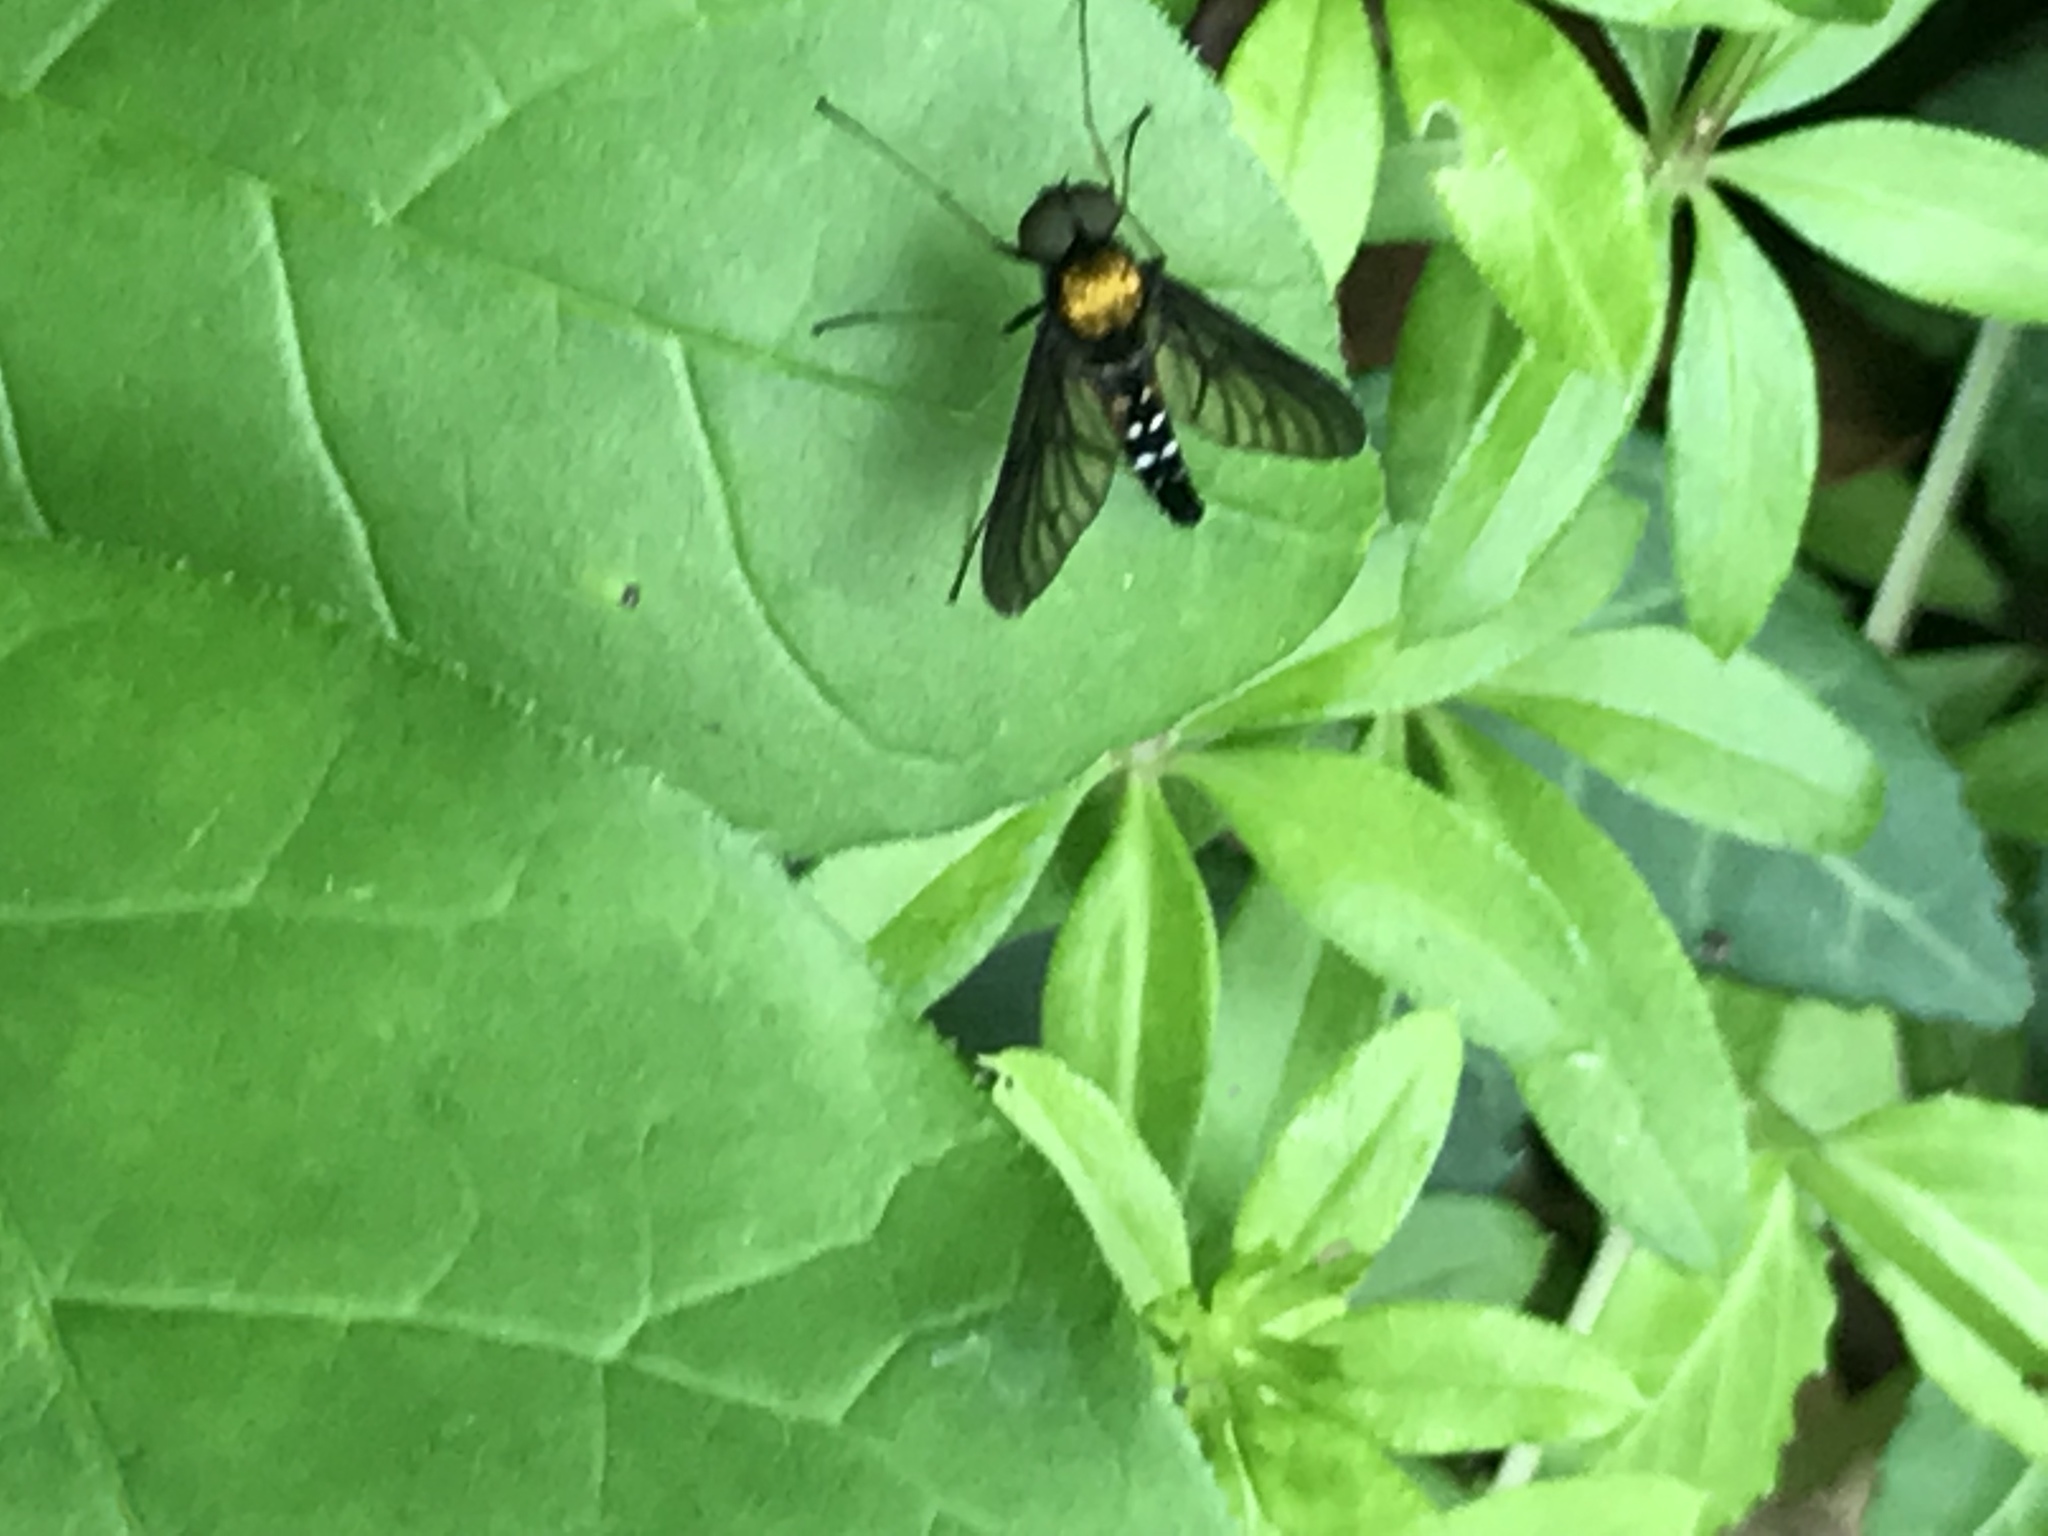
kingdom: Animalia
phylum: Arthropoda
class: Insecta
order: Diptera
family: Rhagionidae
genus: Chrysopilus
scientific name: Chrysopilus thoracicus
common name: Golden-backed snipe fly
